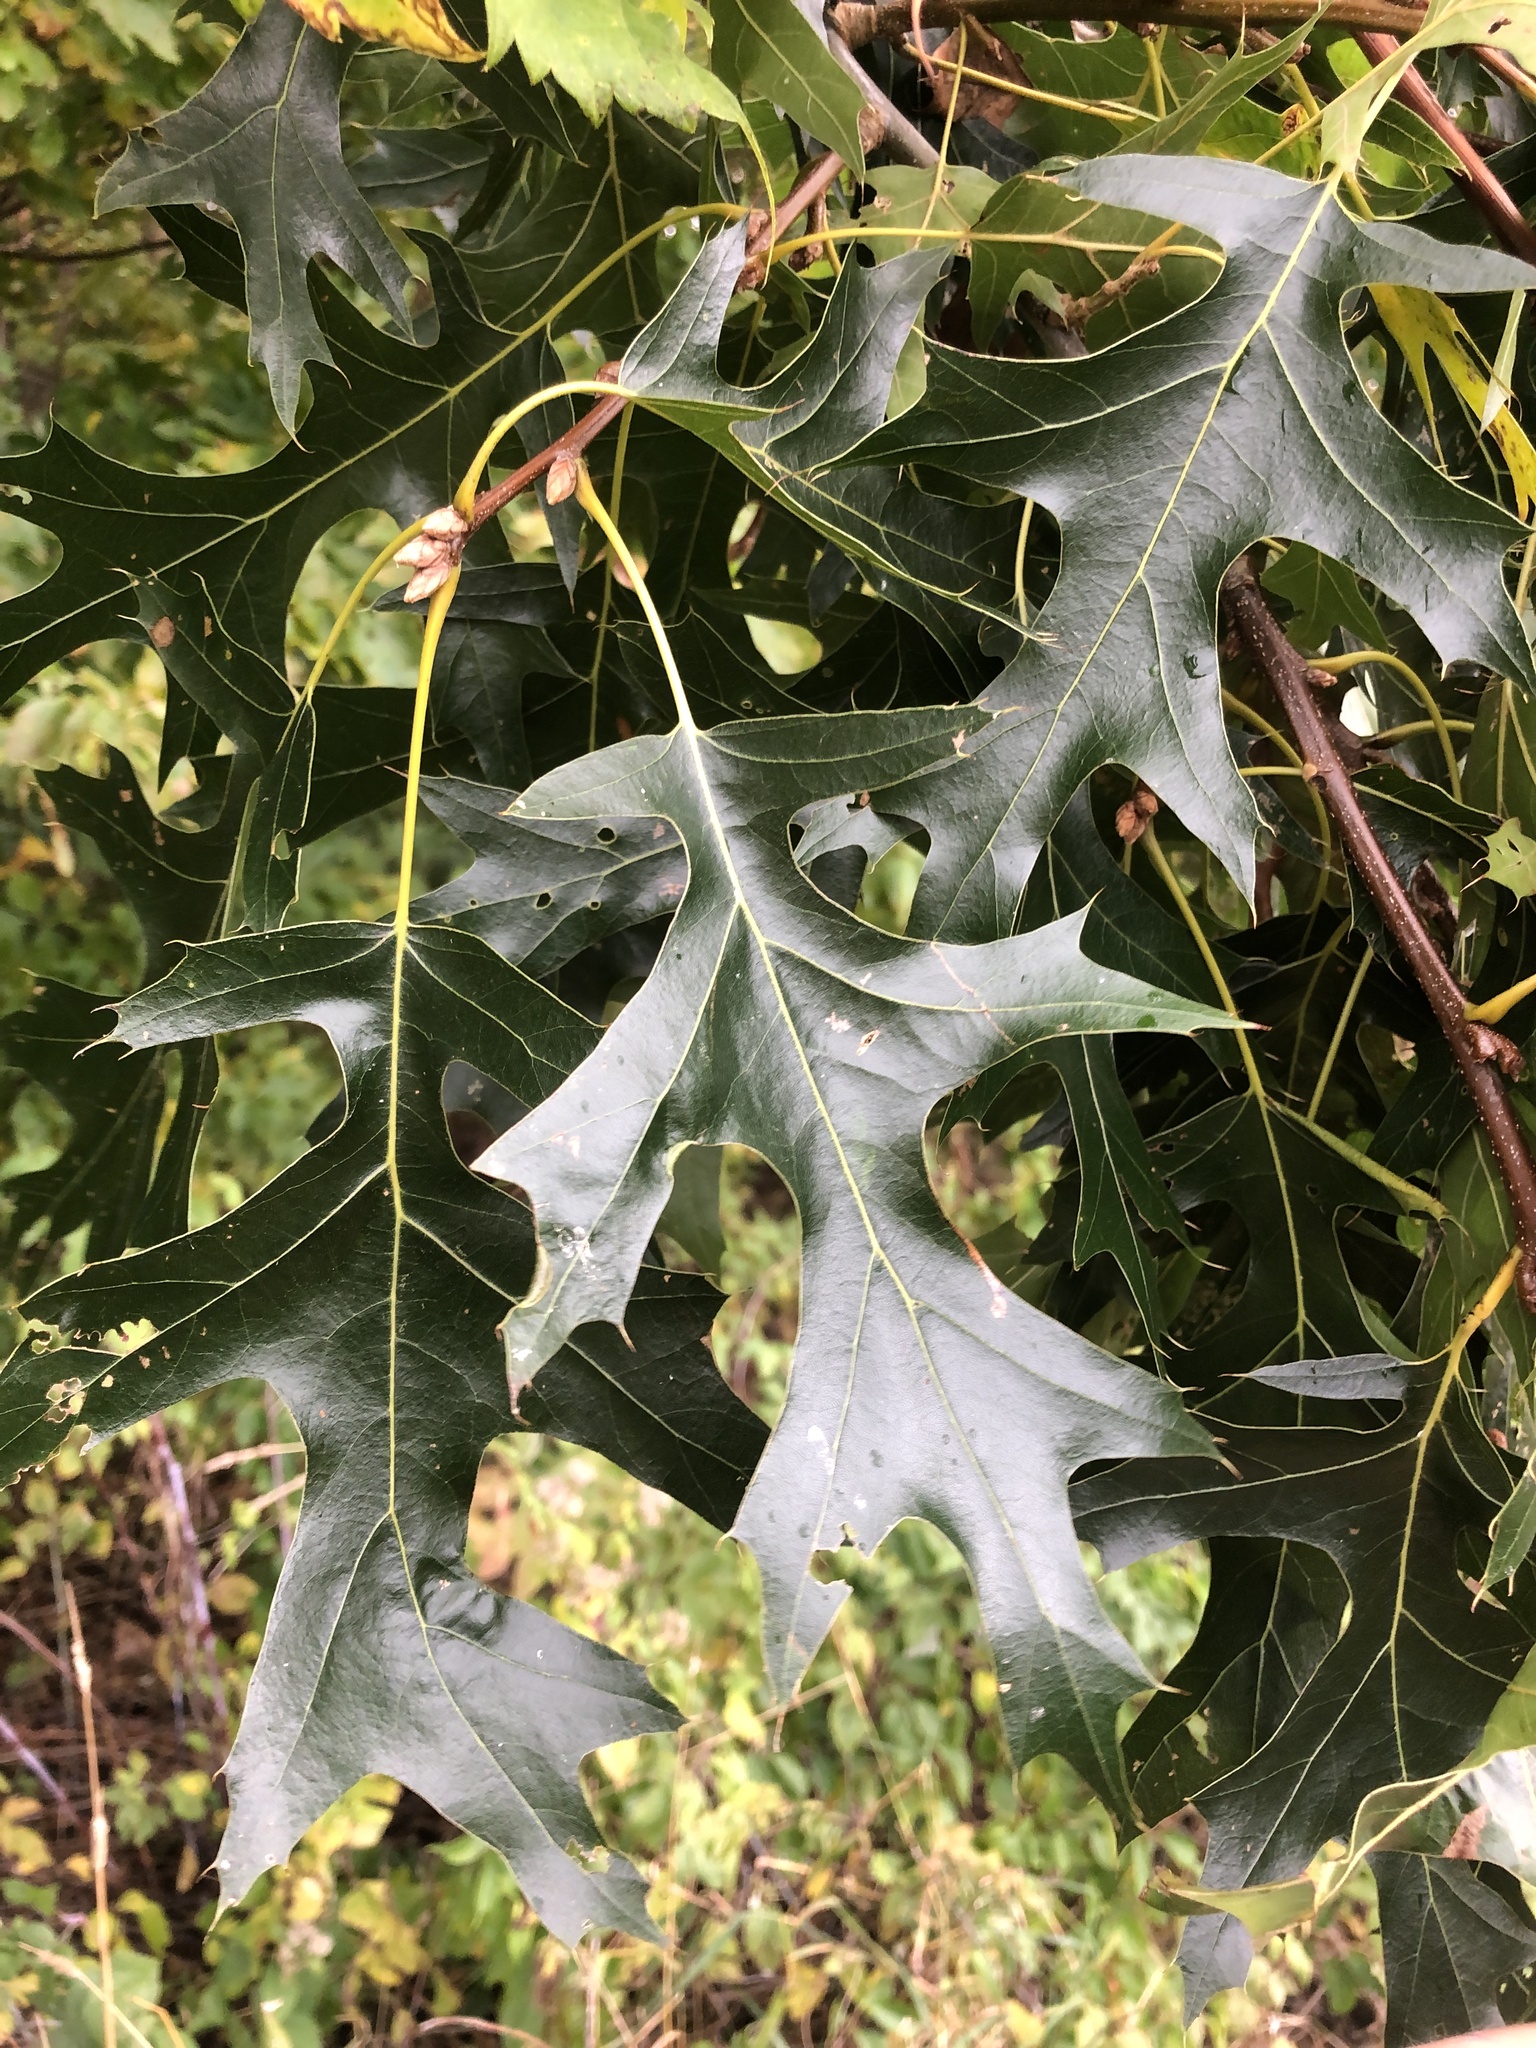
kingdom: Plantae
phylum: Tracheophyta
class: Magnoliopsida
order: Fagales
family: Fagaceae
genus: Quercus
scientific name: Quercus velutina
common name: Black oak
